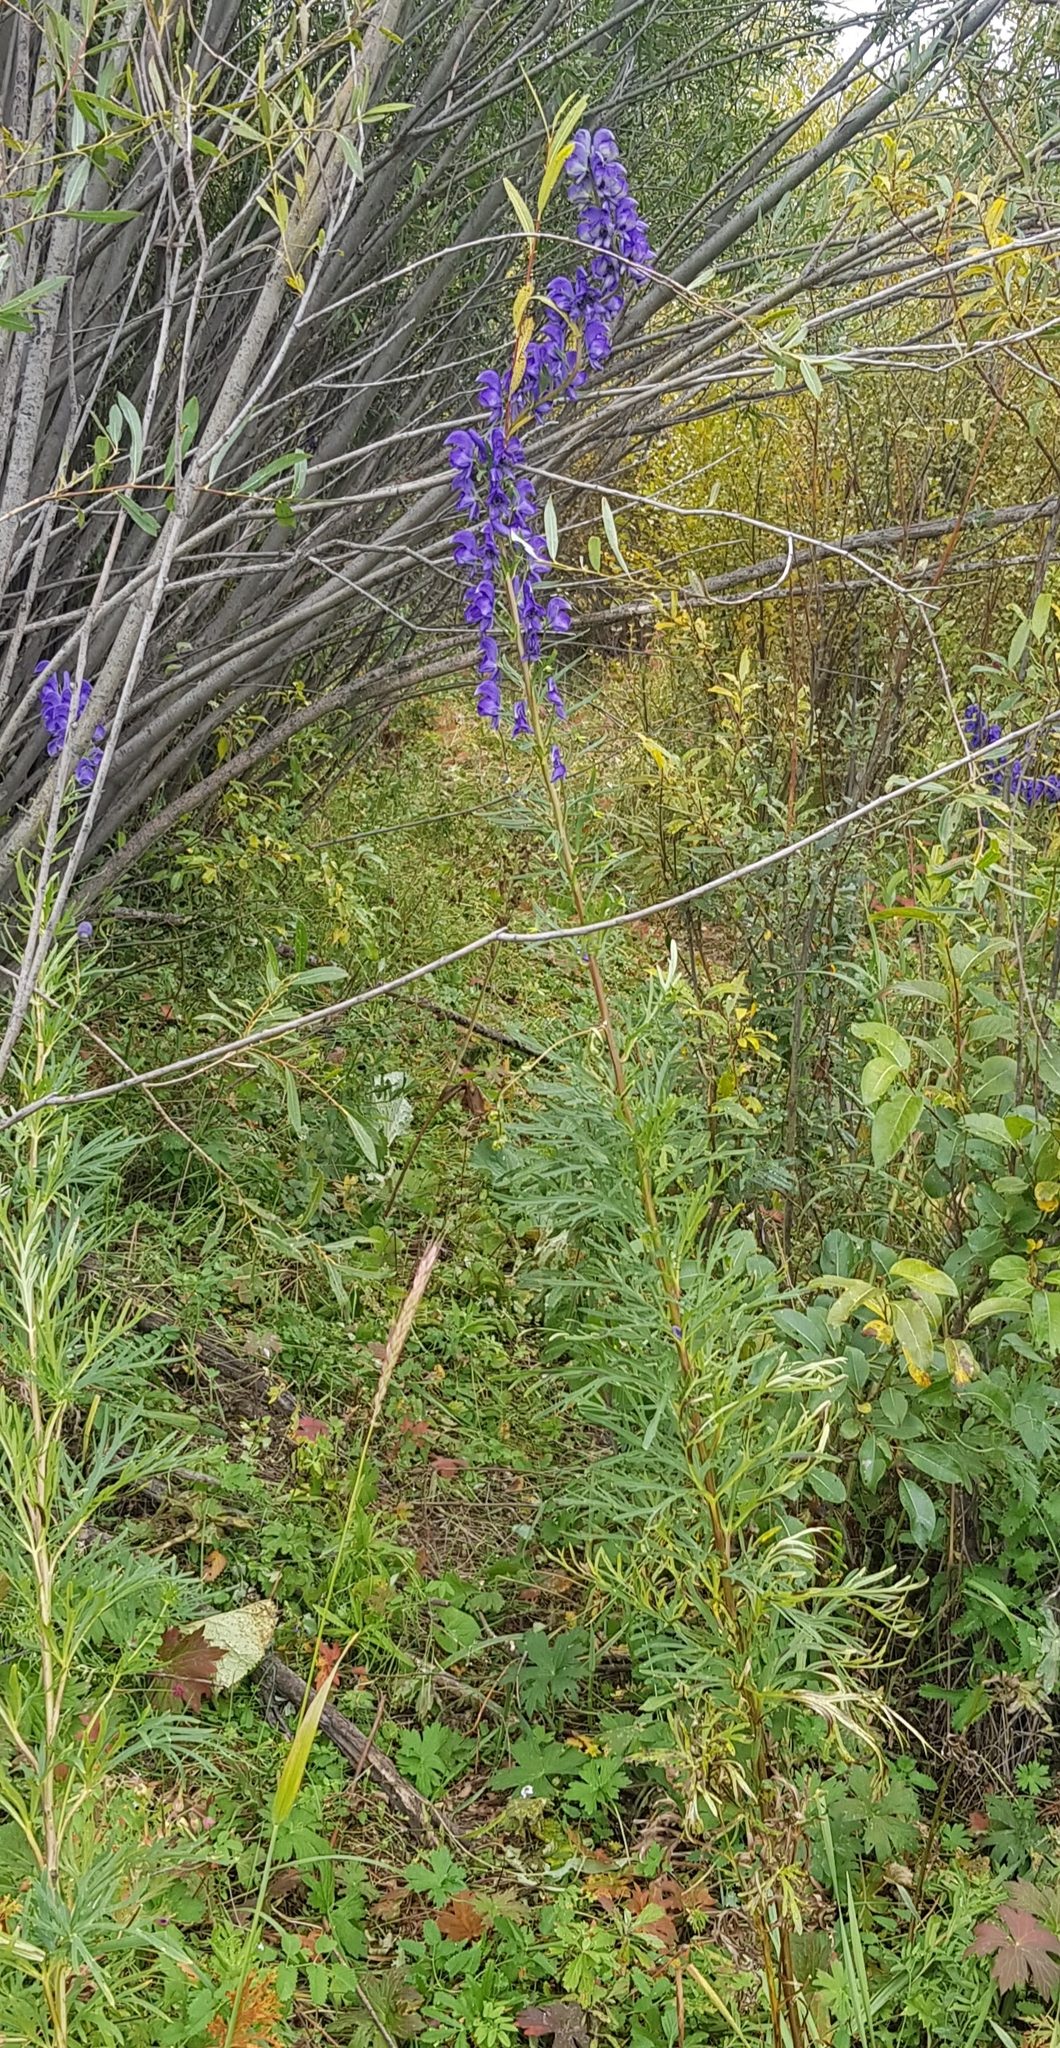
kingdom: Plantae
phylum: Tracheophyta
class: Magnoliopsida
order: Ranunculales
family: Ranunculaceae
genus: Aconitum
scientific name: Aconitum turczaninowii
